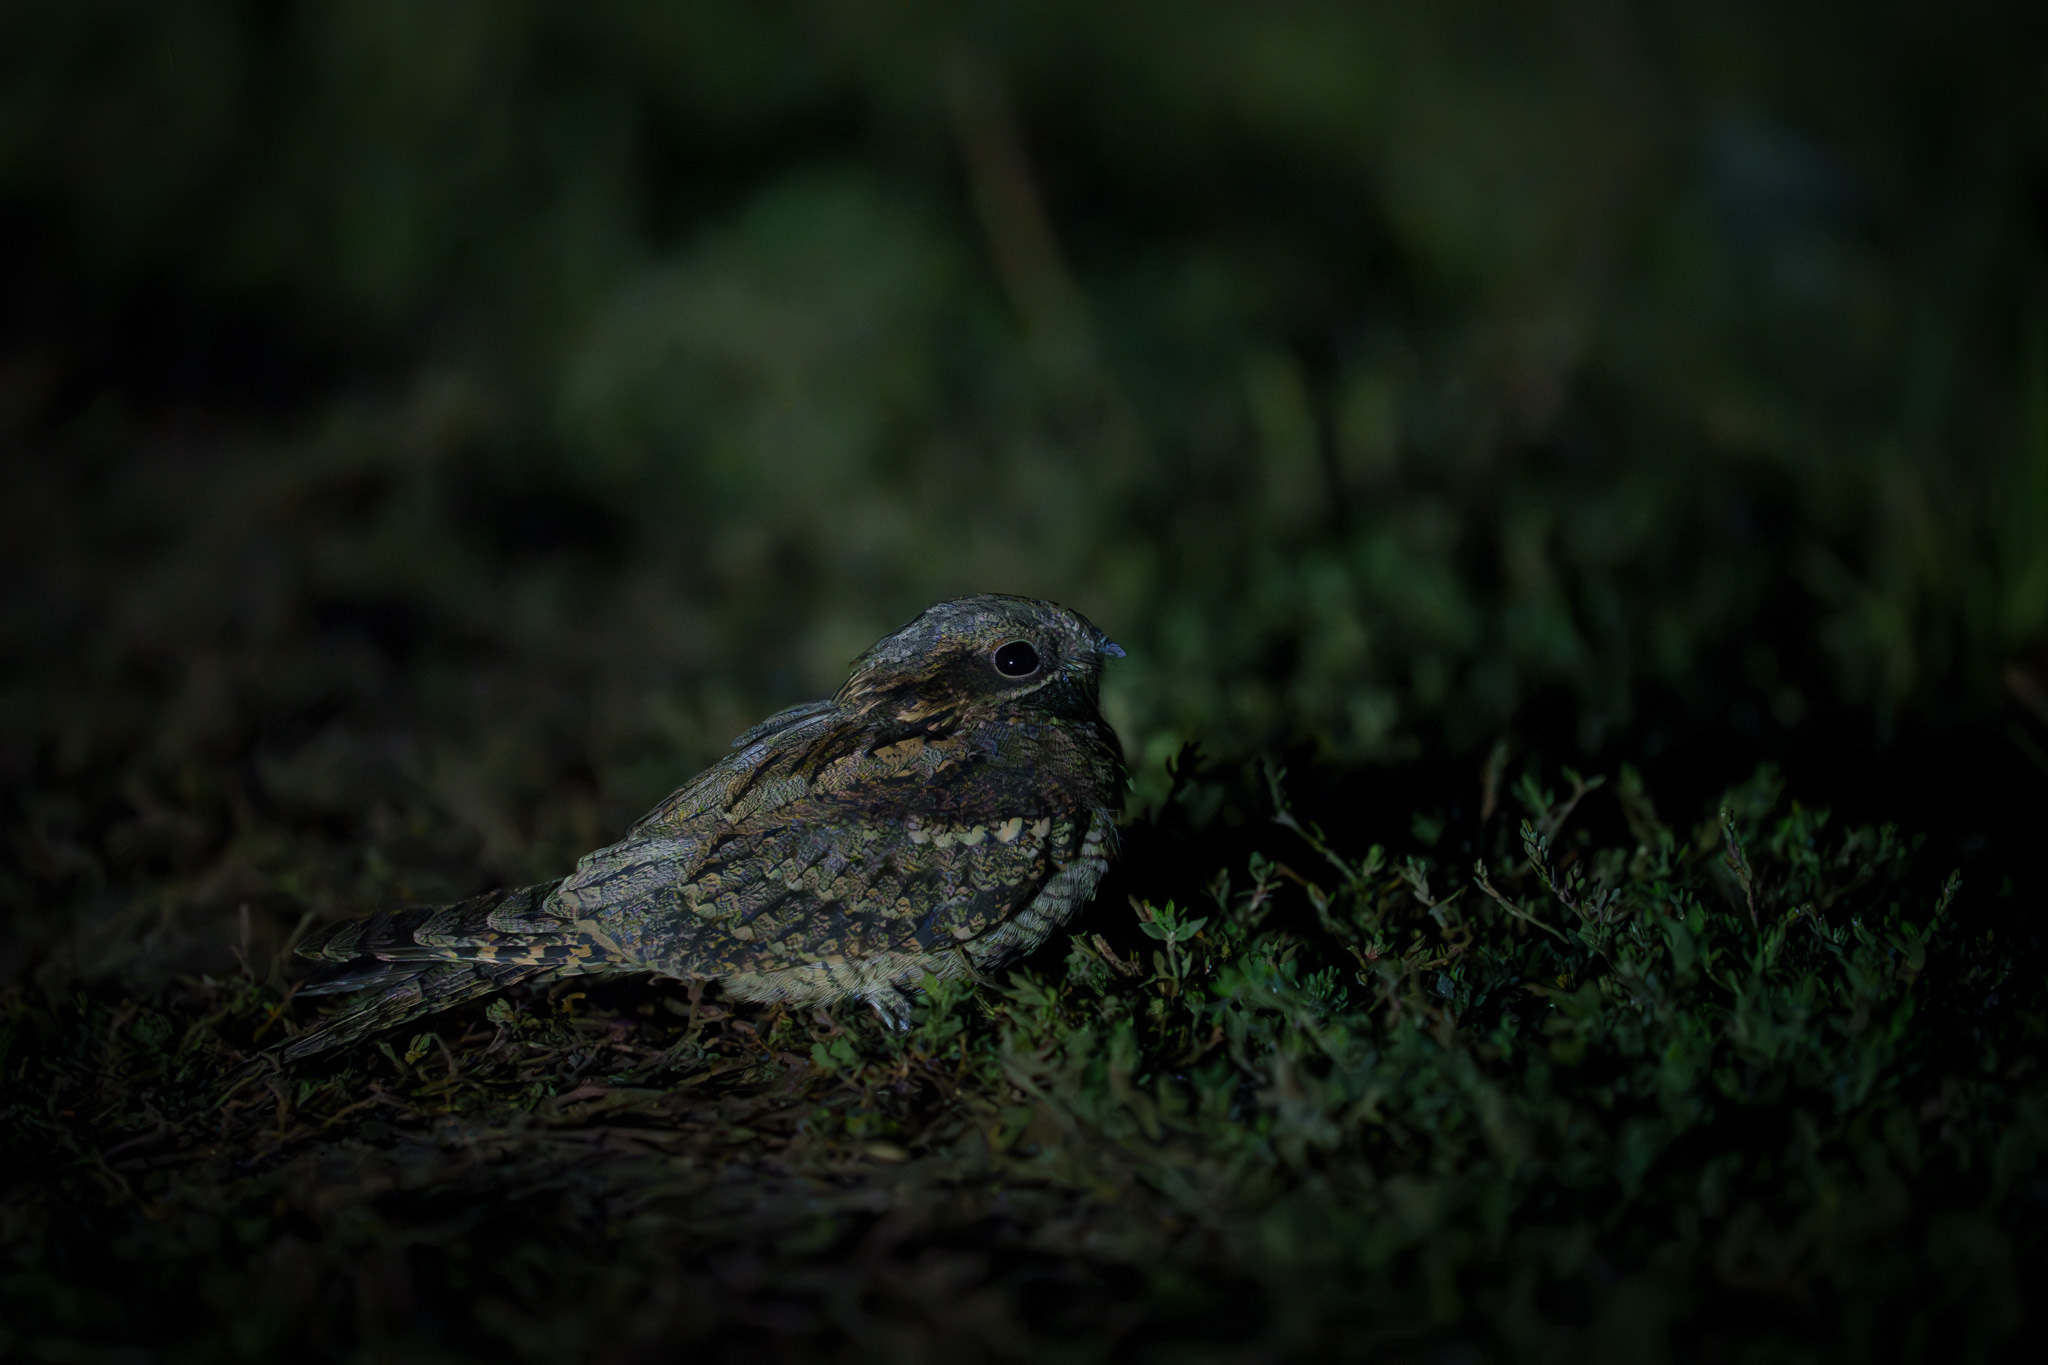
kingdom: Animalia
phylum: Chordata
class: Aves
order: Caprimulgiformes
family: Caprimulgidae
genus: Caprimulgus
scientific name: Caprimulgus europaeus
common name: European nightjar
